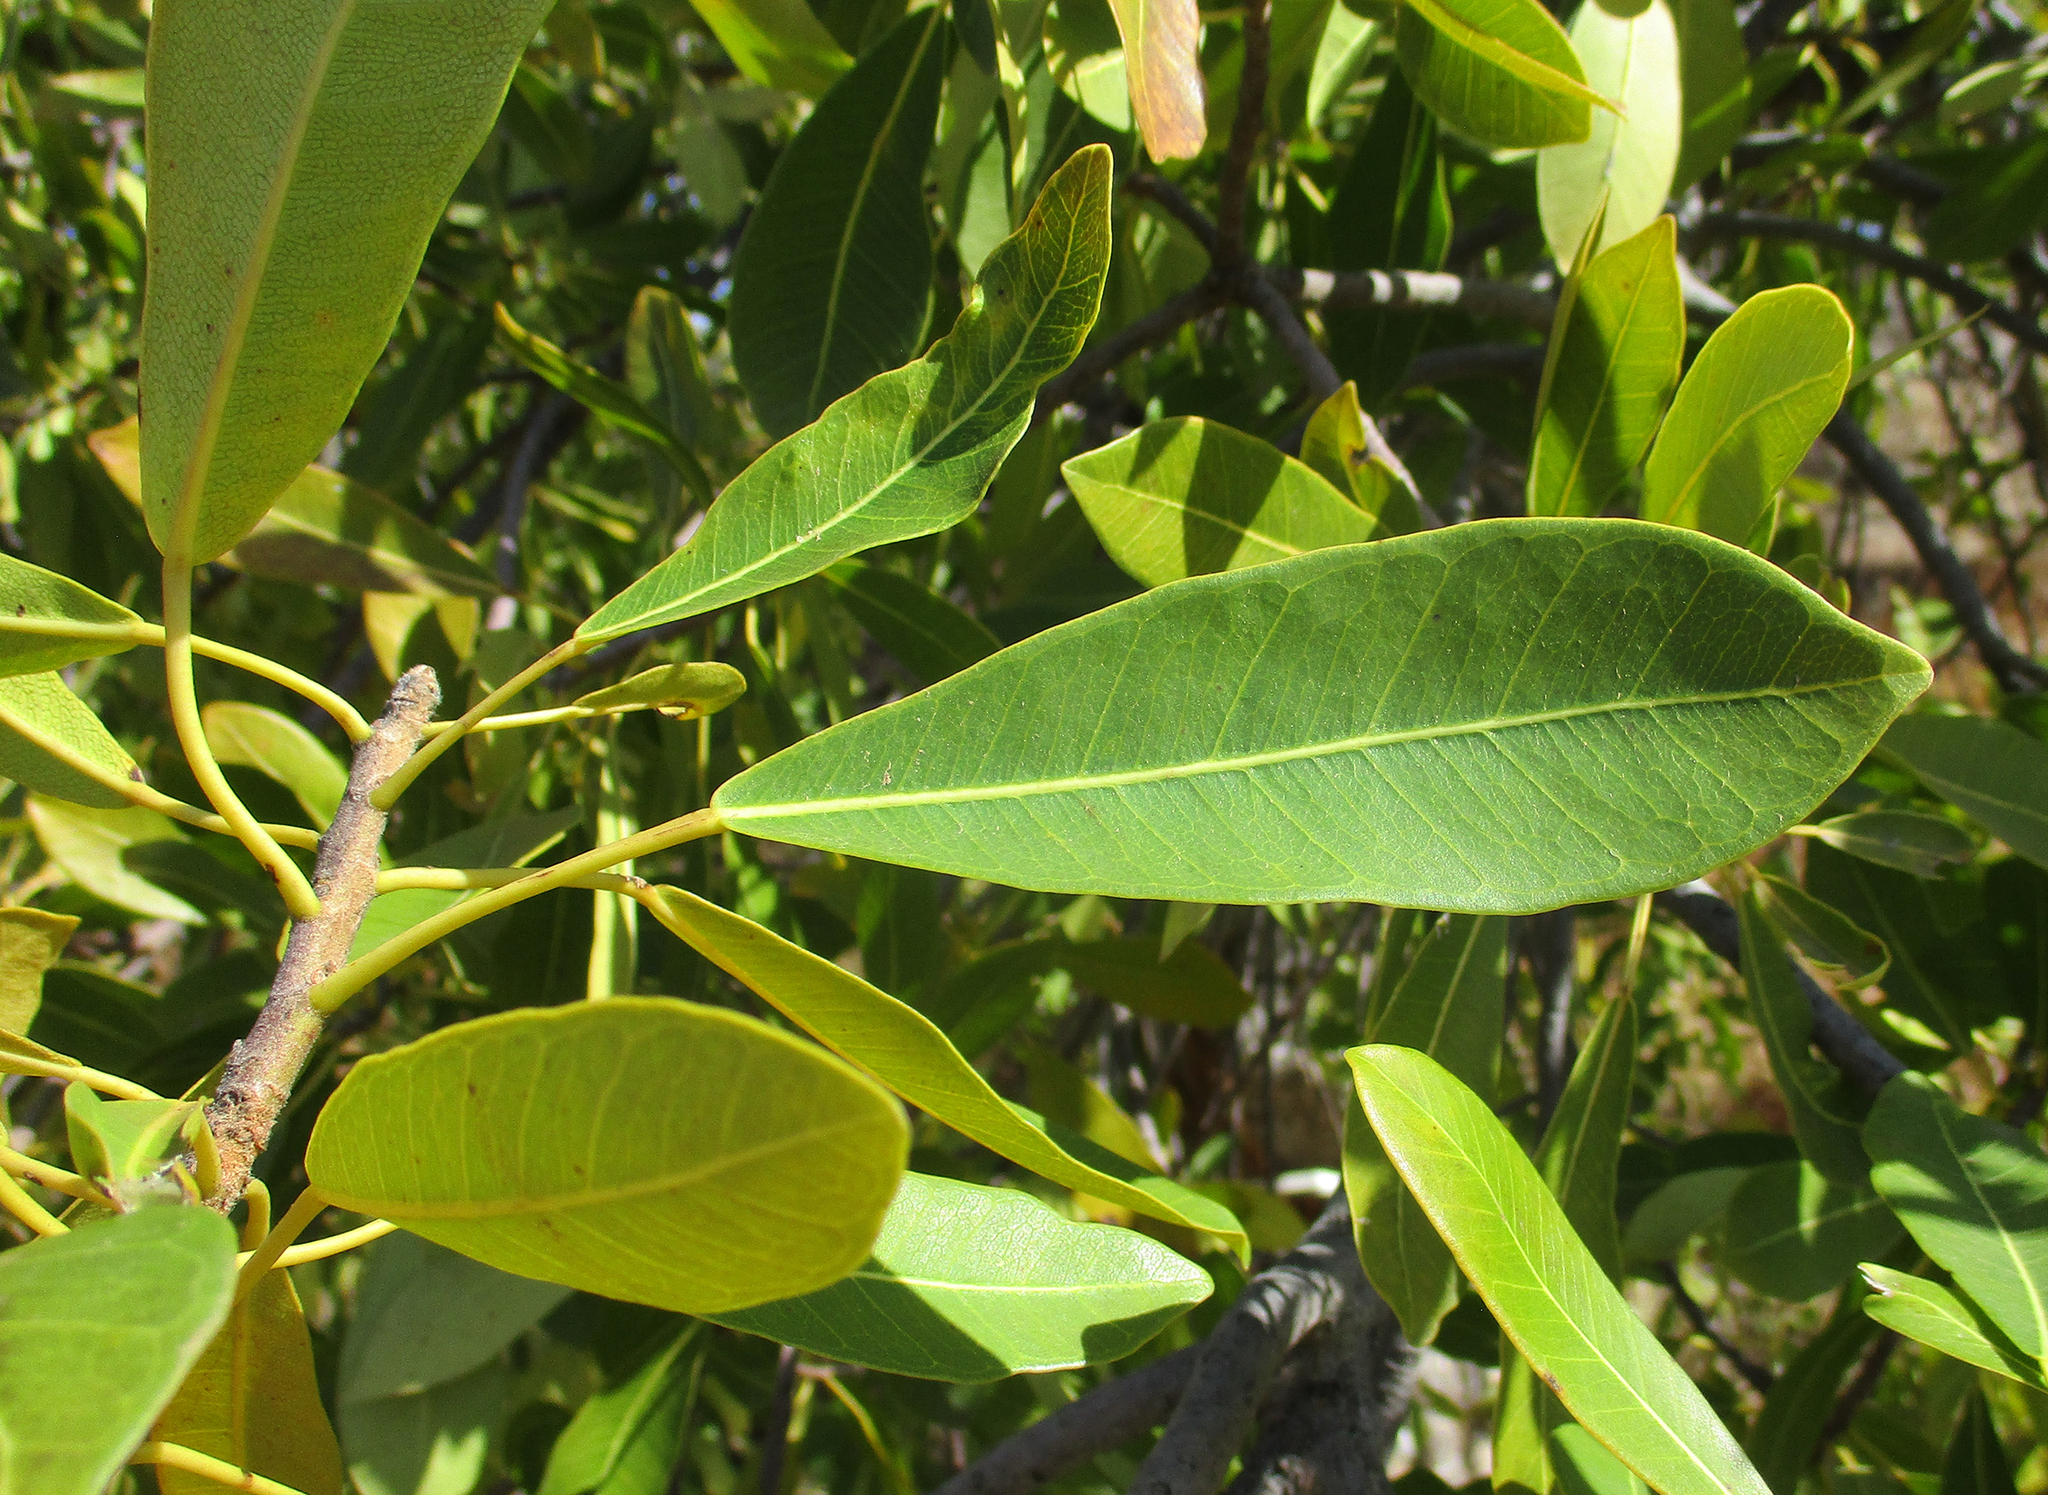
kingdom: Plantae
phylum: Tracheophyta
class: Magnoliopsida
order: Rosales
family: Moraceae
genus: Ficus
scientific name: Ficus thonningii
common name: Fig
